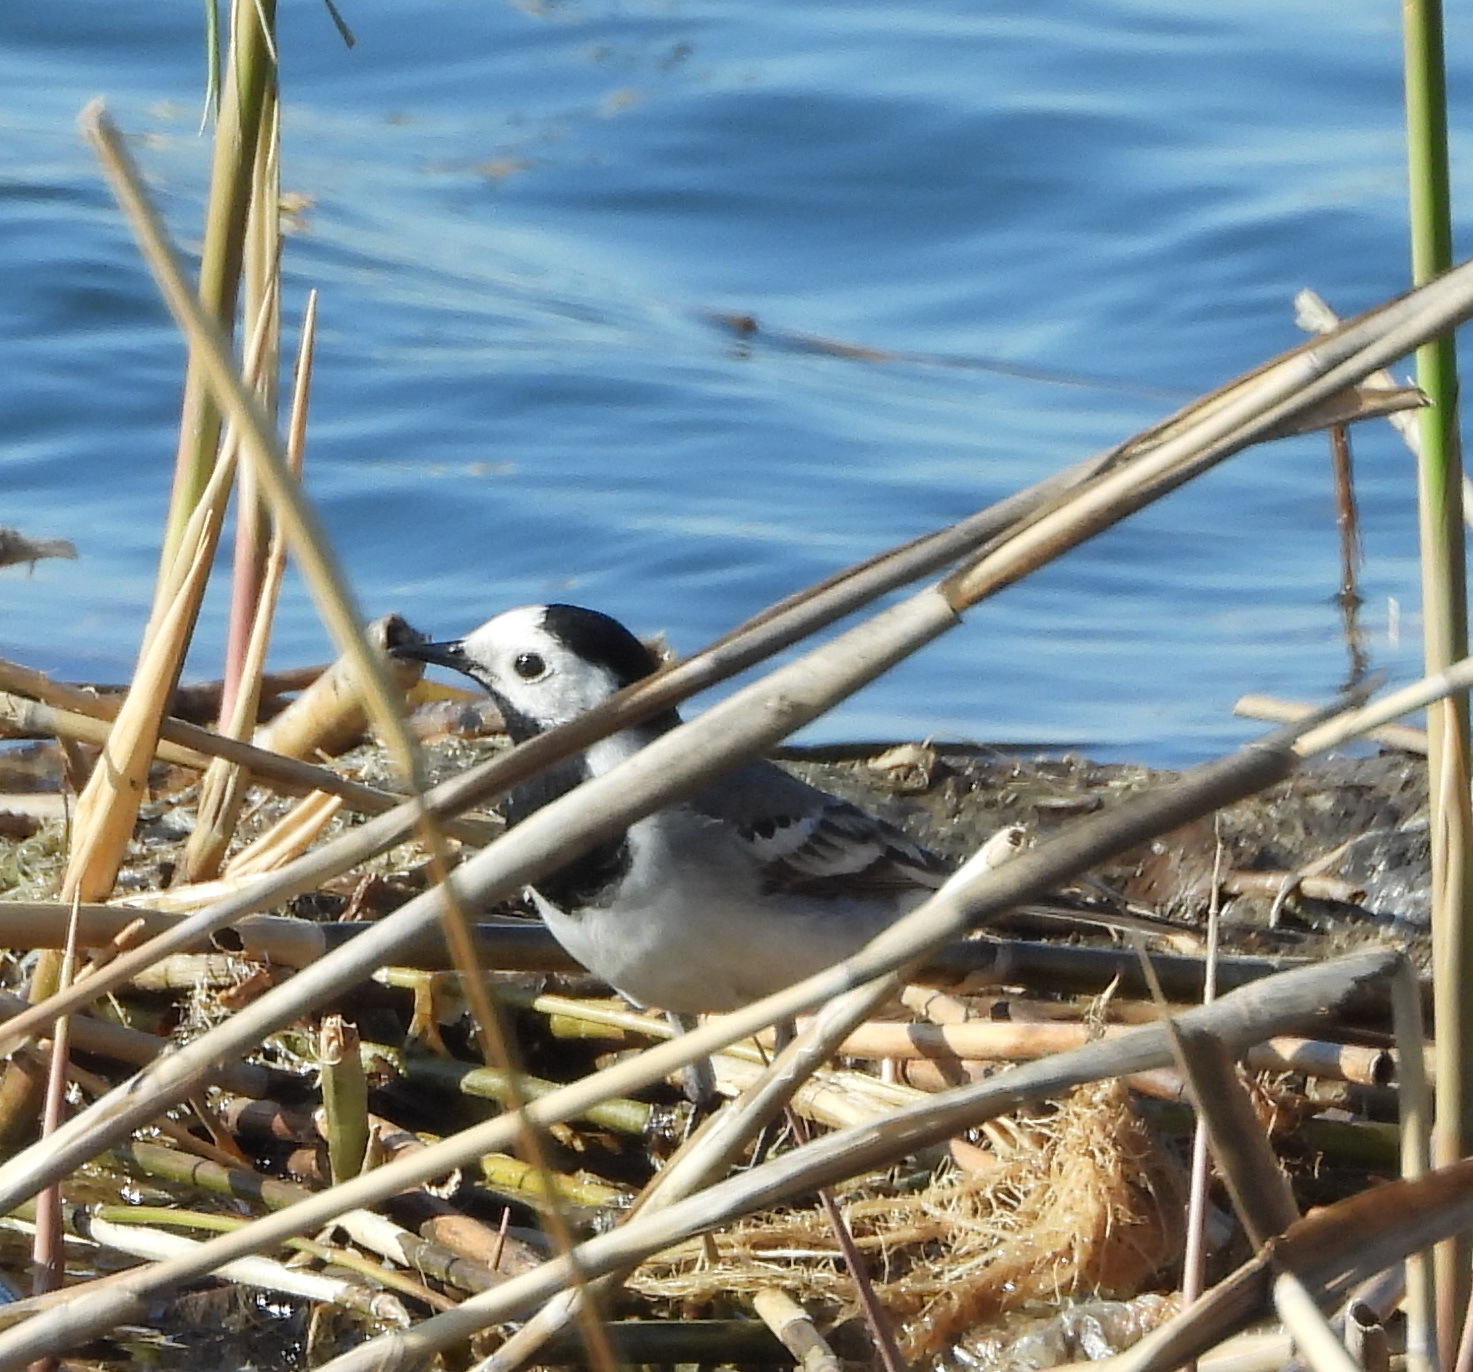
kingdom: Animalia
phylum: Chordata
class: Aves
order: Passeriformes
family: Motacillidae
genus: Motacilla
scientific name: Motacilla alba
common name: White wagtail
